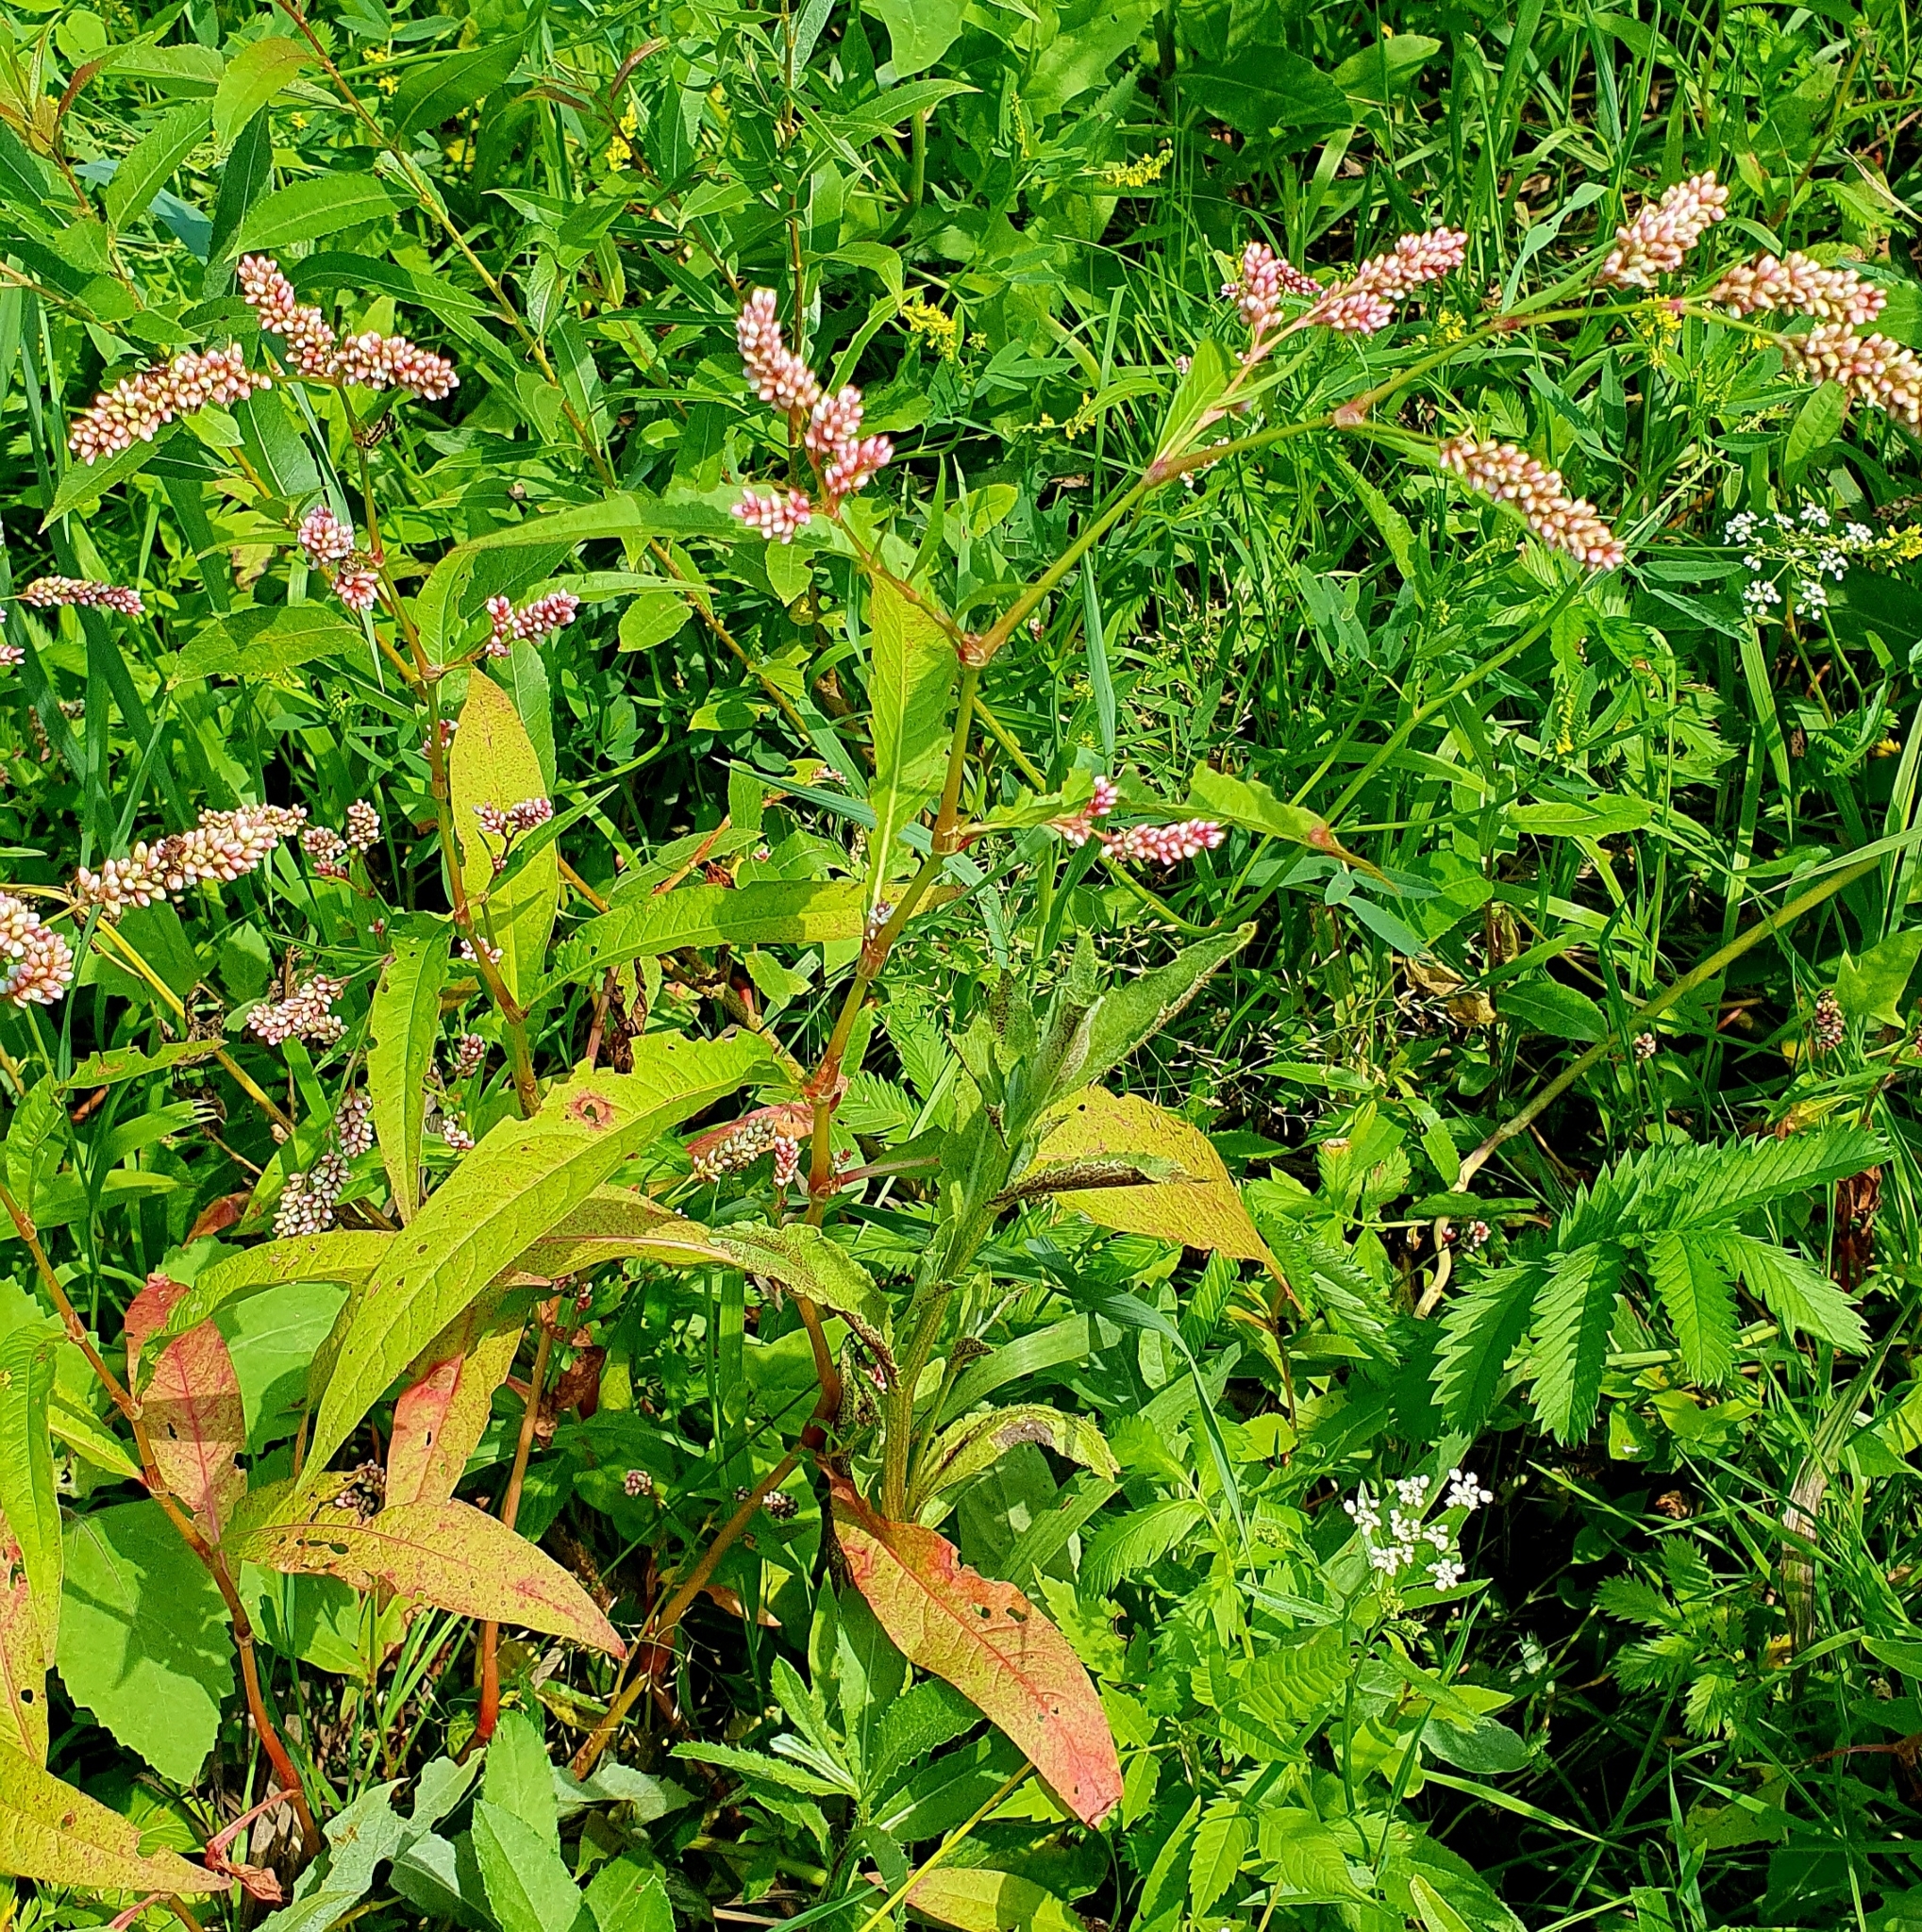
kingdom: Plantae
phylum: Tracheophyta
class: Magnoliopsida
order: Caryophyllales
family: Polygonaceae
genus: Persicaria
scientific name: Persicaria lapathifolia
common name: Curlytop knotweed
